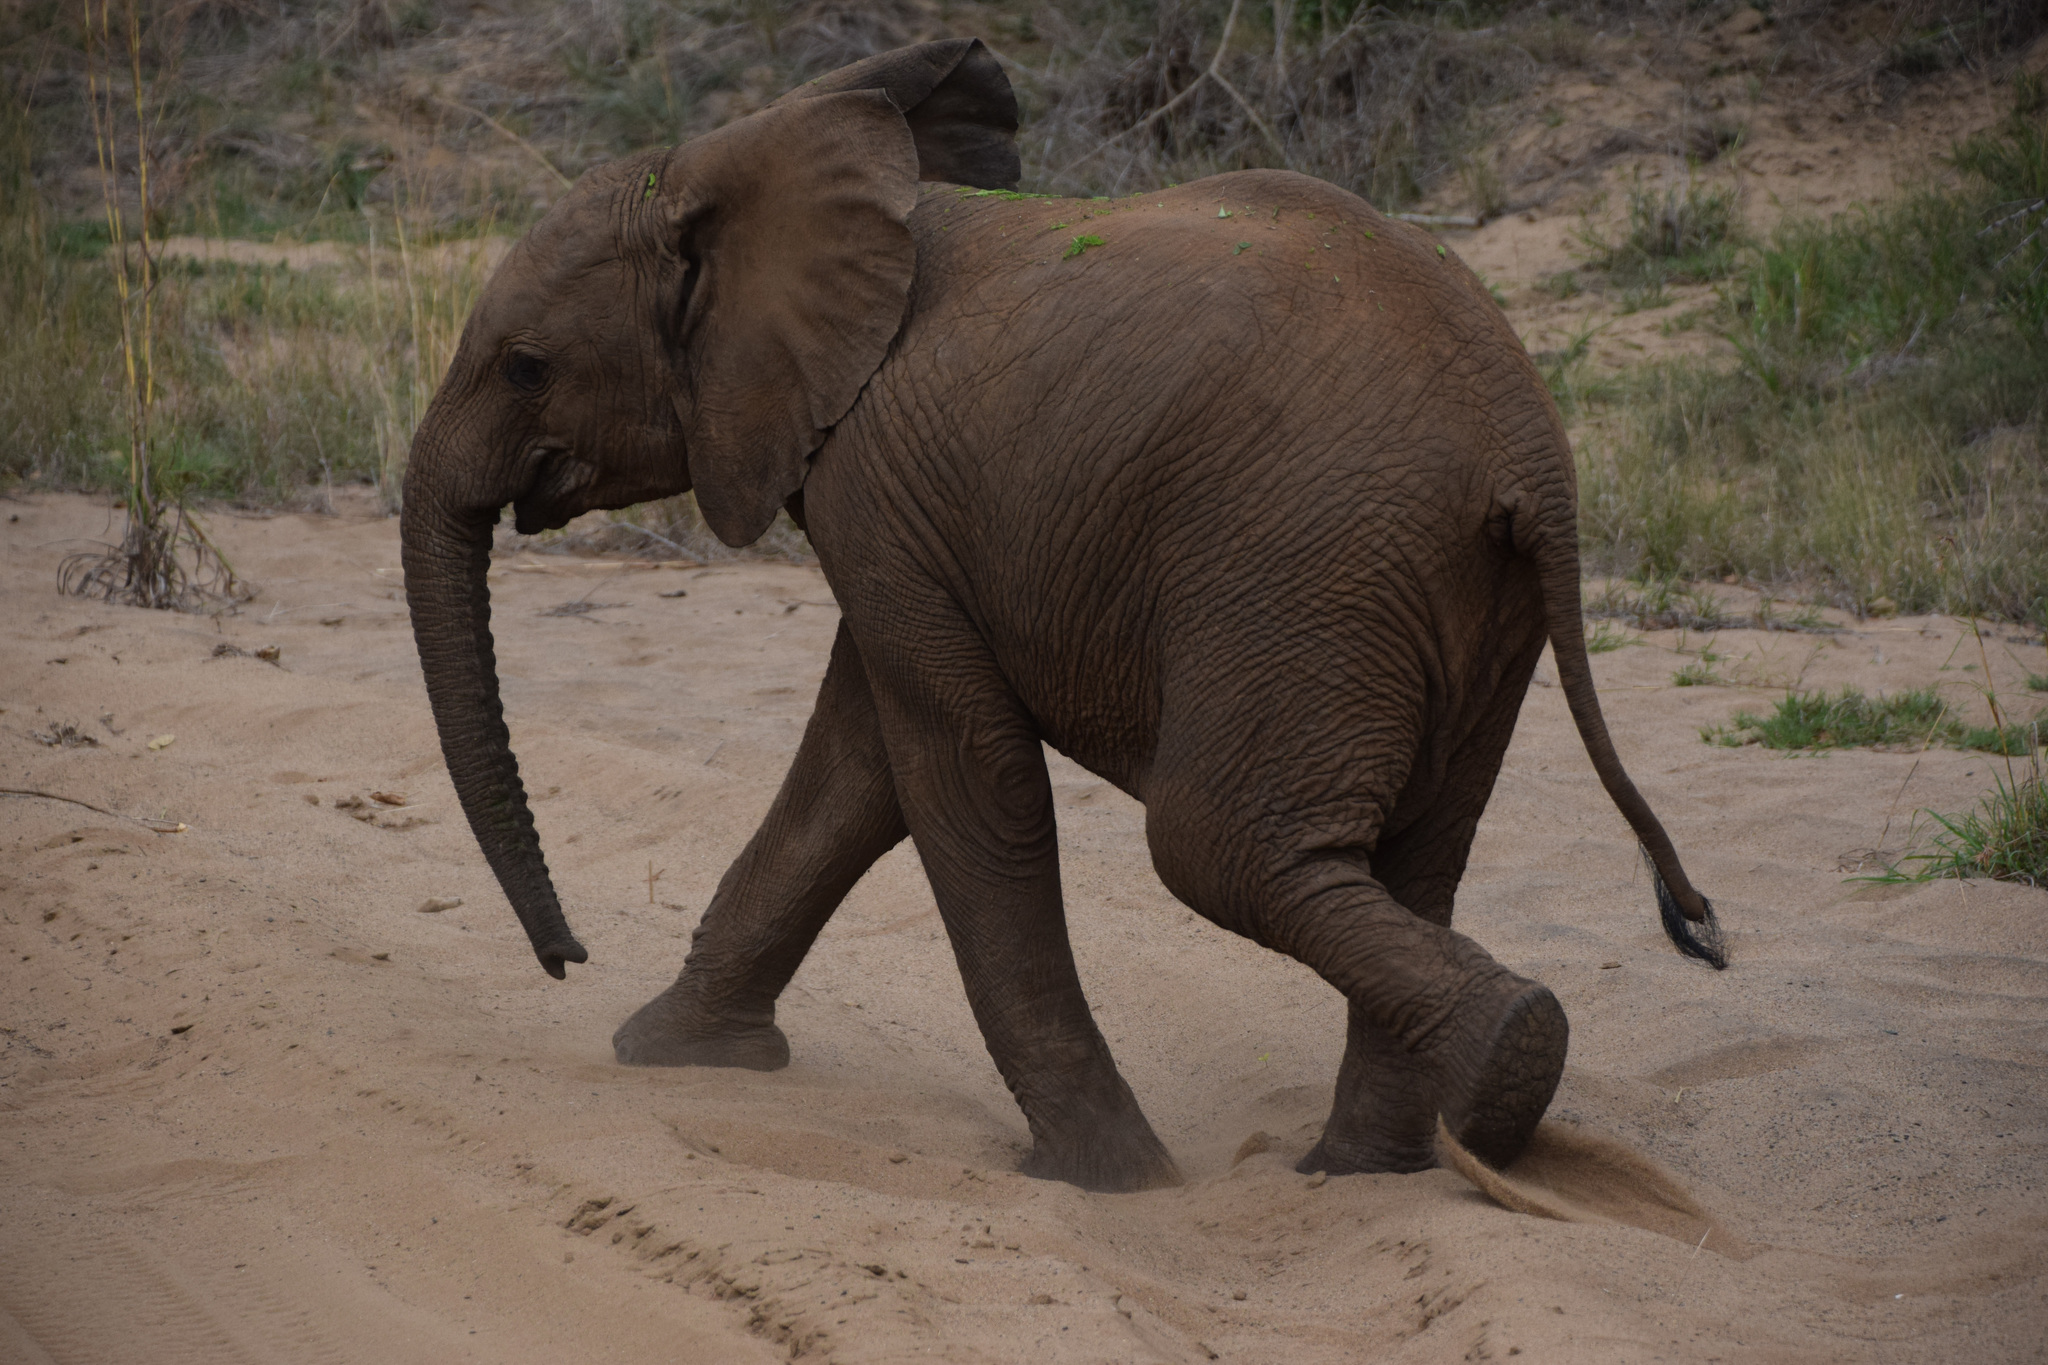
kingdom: Animalia
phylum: Chordata
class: Mammalia
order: Proboscidea
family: Elephantidae
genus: Loxodonta
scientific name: Loxodonta africana
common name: African elephant
